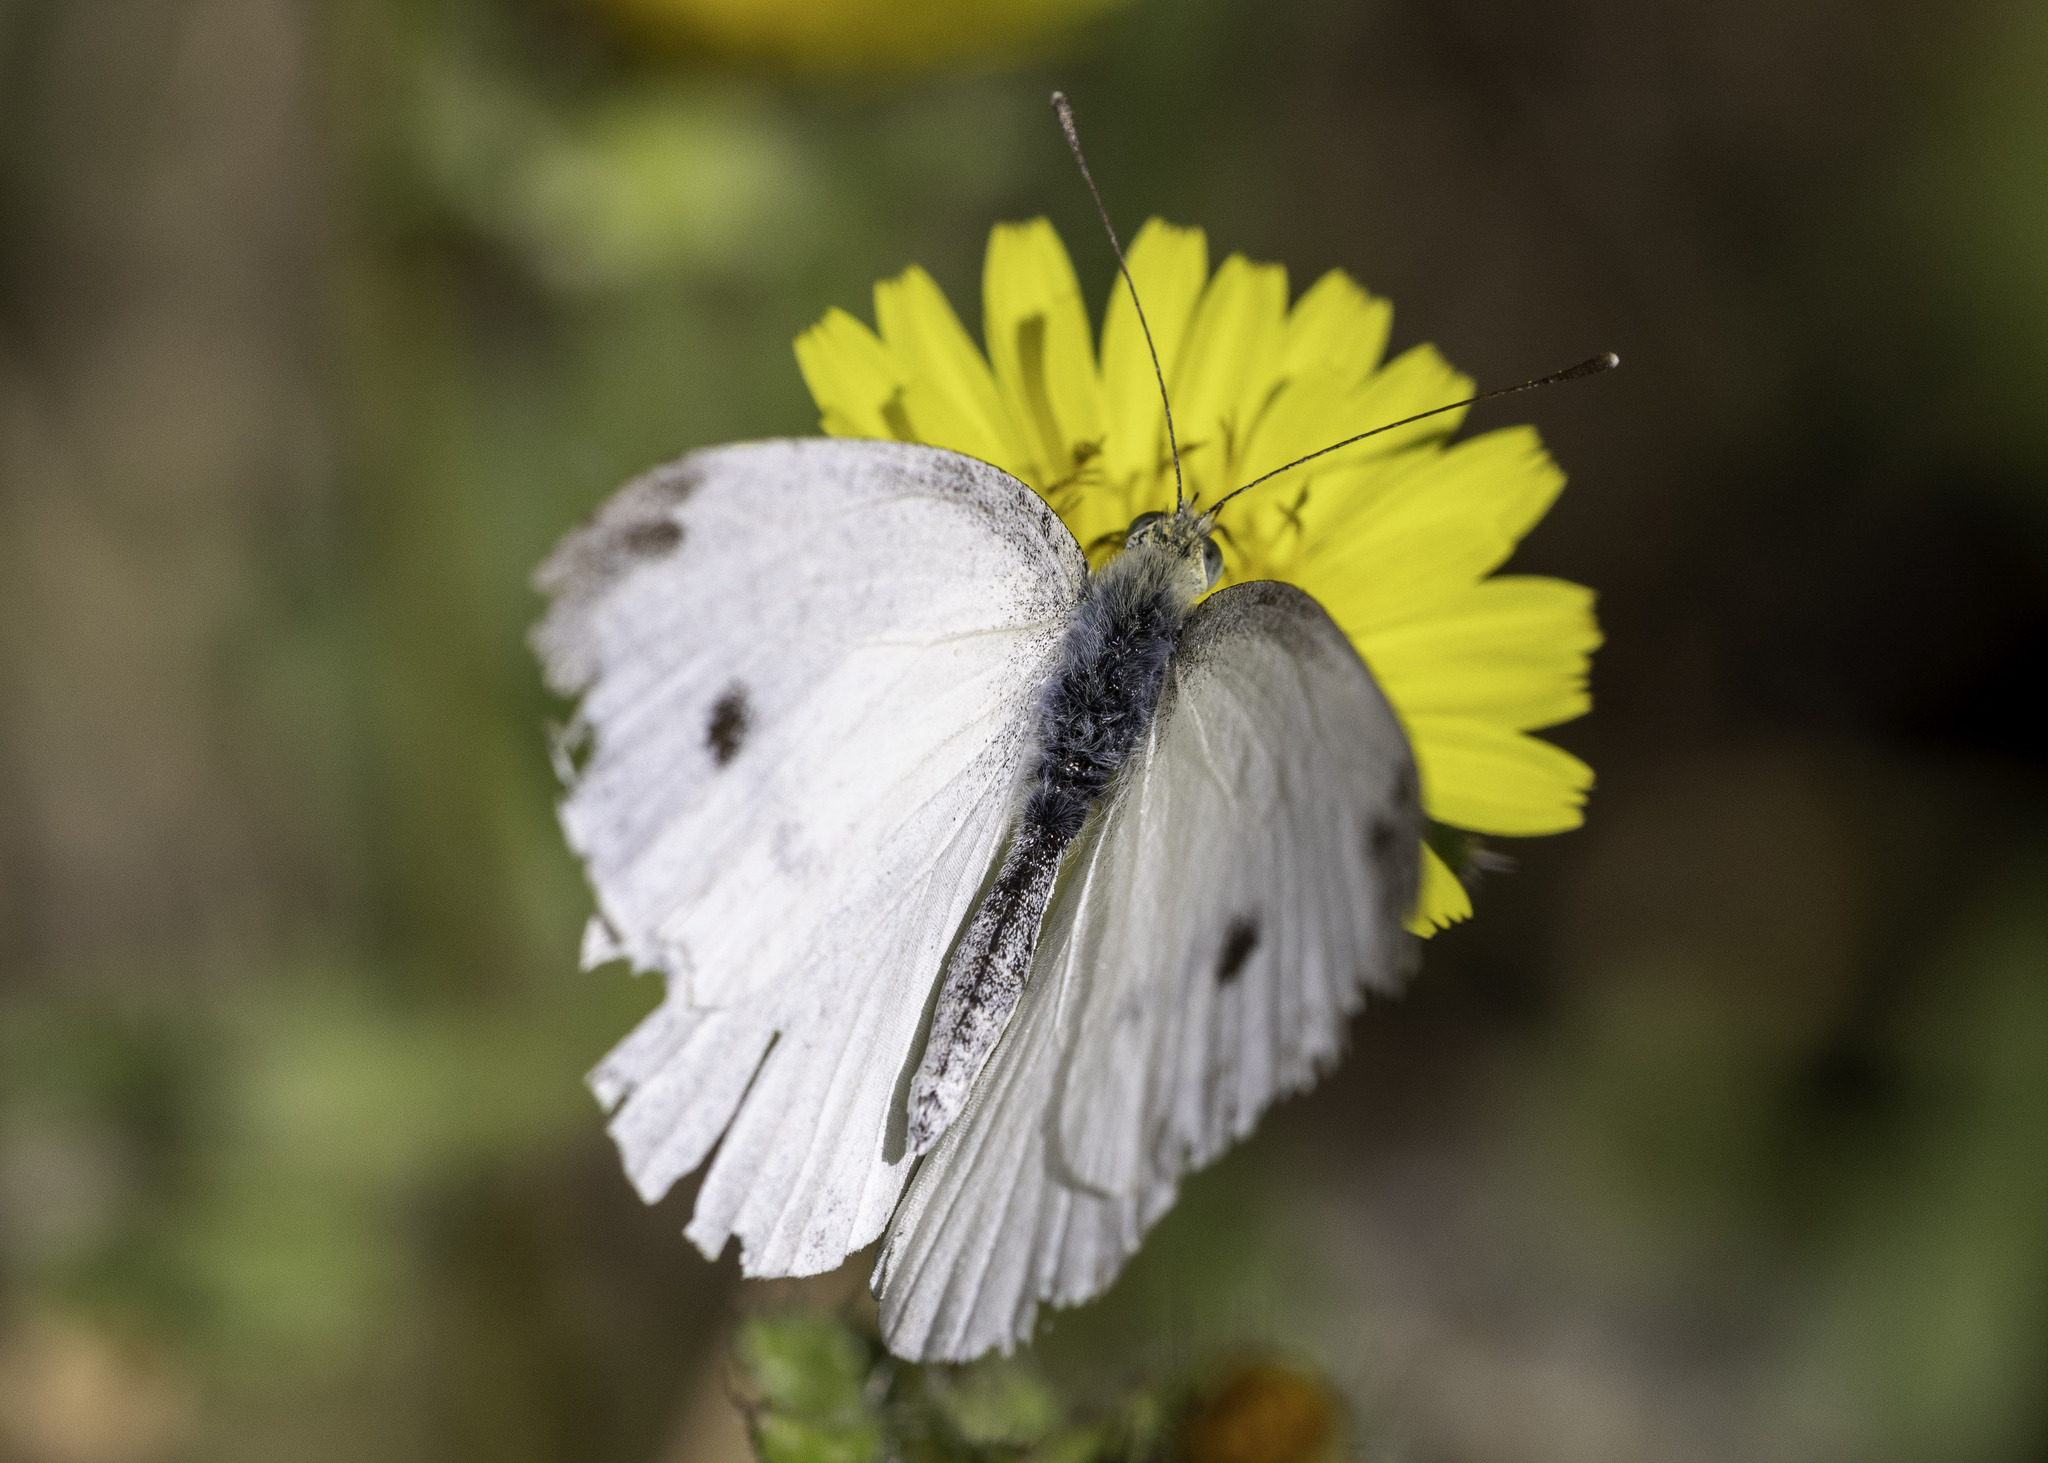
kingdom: Animalia
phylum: Arthropoda
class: Insecta
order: Lepidoptera
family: Pieridae
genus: Pieris
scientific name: Pieris rapae
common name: Small white
